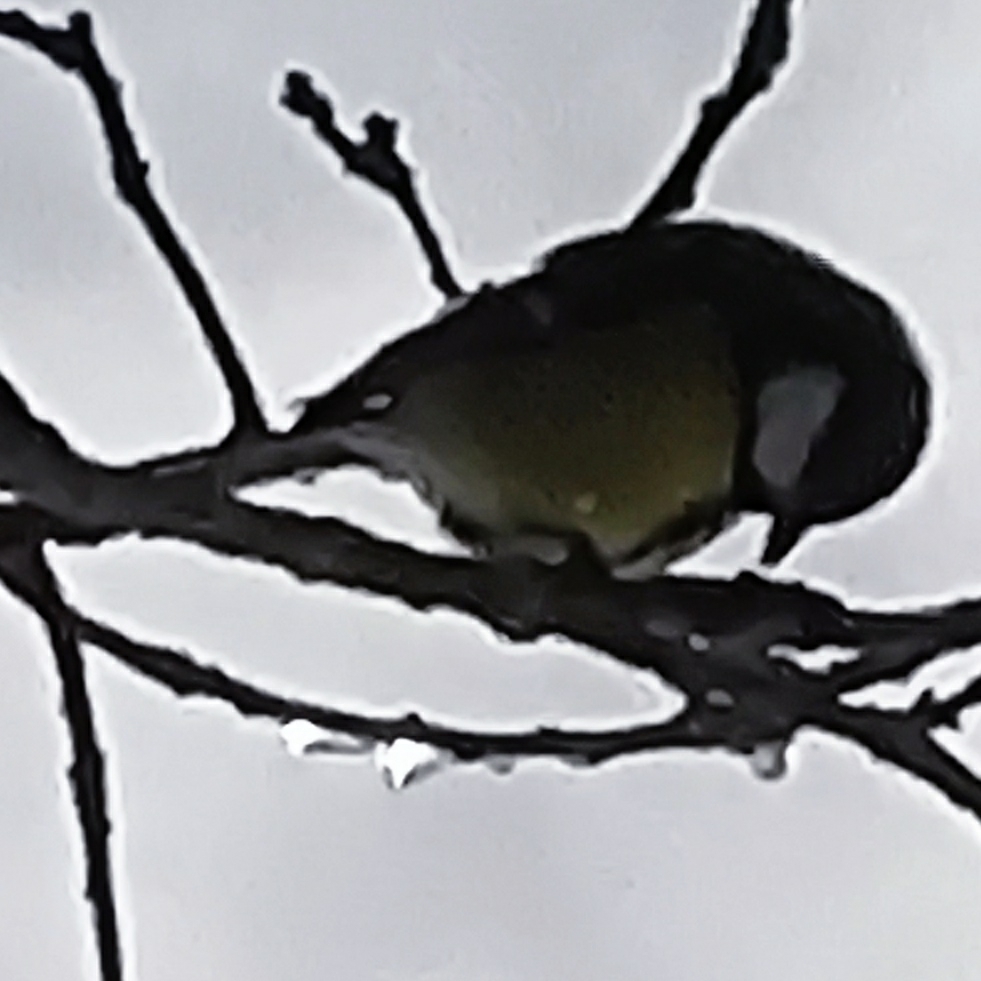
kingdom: Animalia
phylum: Chordata
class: Aves
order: Passeriformes
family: Paridae
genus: Parus
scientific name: Parus major
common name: Great tit
